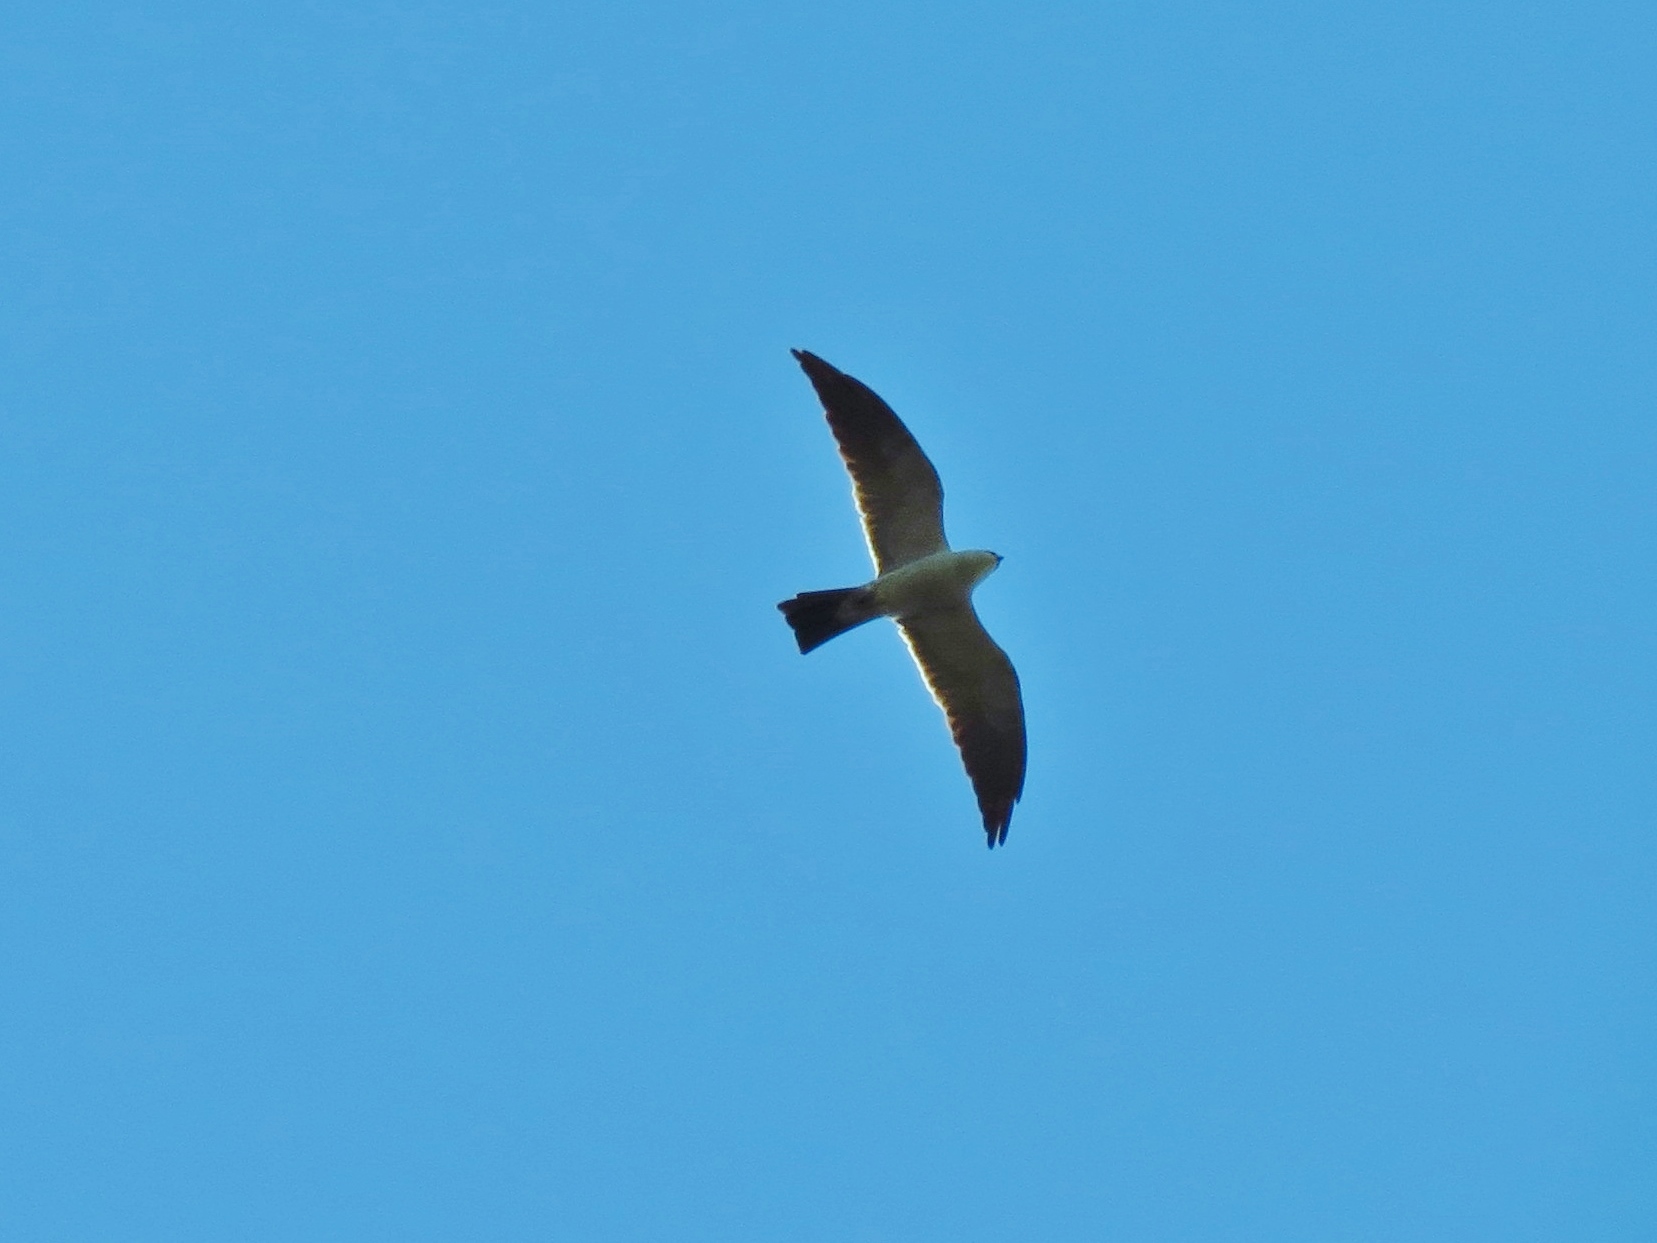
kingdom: Animalia
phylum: Chordata
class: Aves
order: Accipitriformes
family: Accipitridae
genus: Ictinia
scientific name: Ictinia mississippiensis
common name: Mississippi kite
